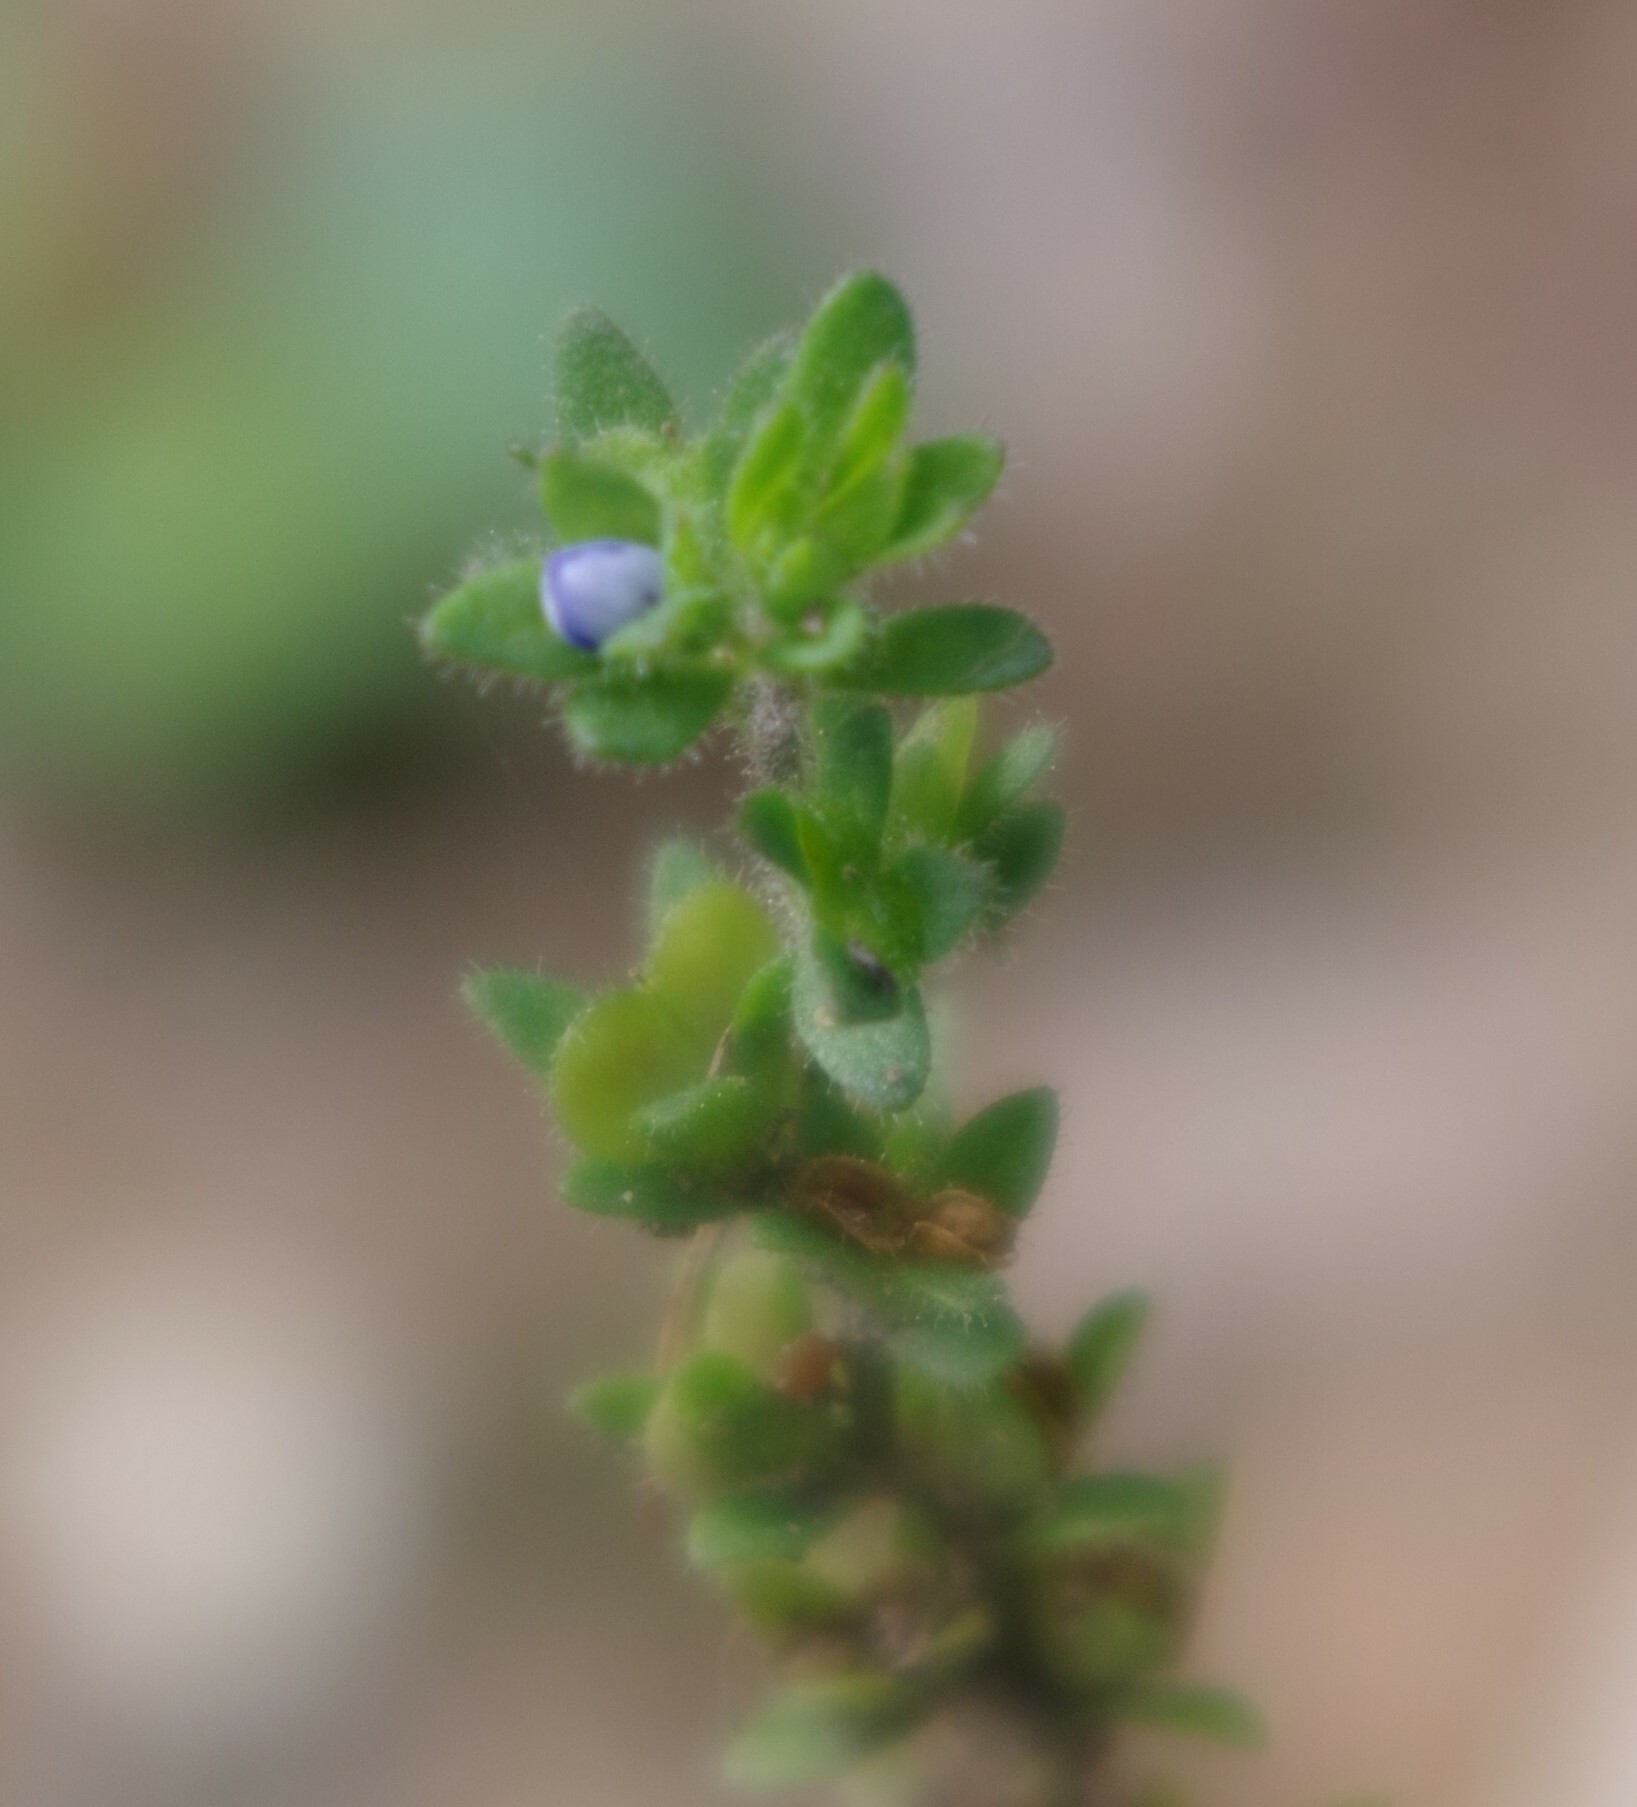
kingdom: Plantae
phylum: Tracheophyta
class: Magnoliopsida
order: Lamiales
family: Plantaginaceae
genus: Veronica
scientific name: Veronica arvensis
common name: Corn speedwell
